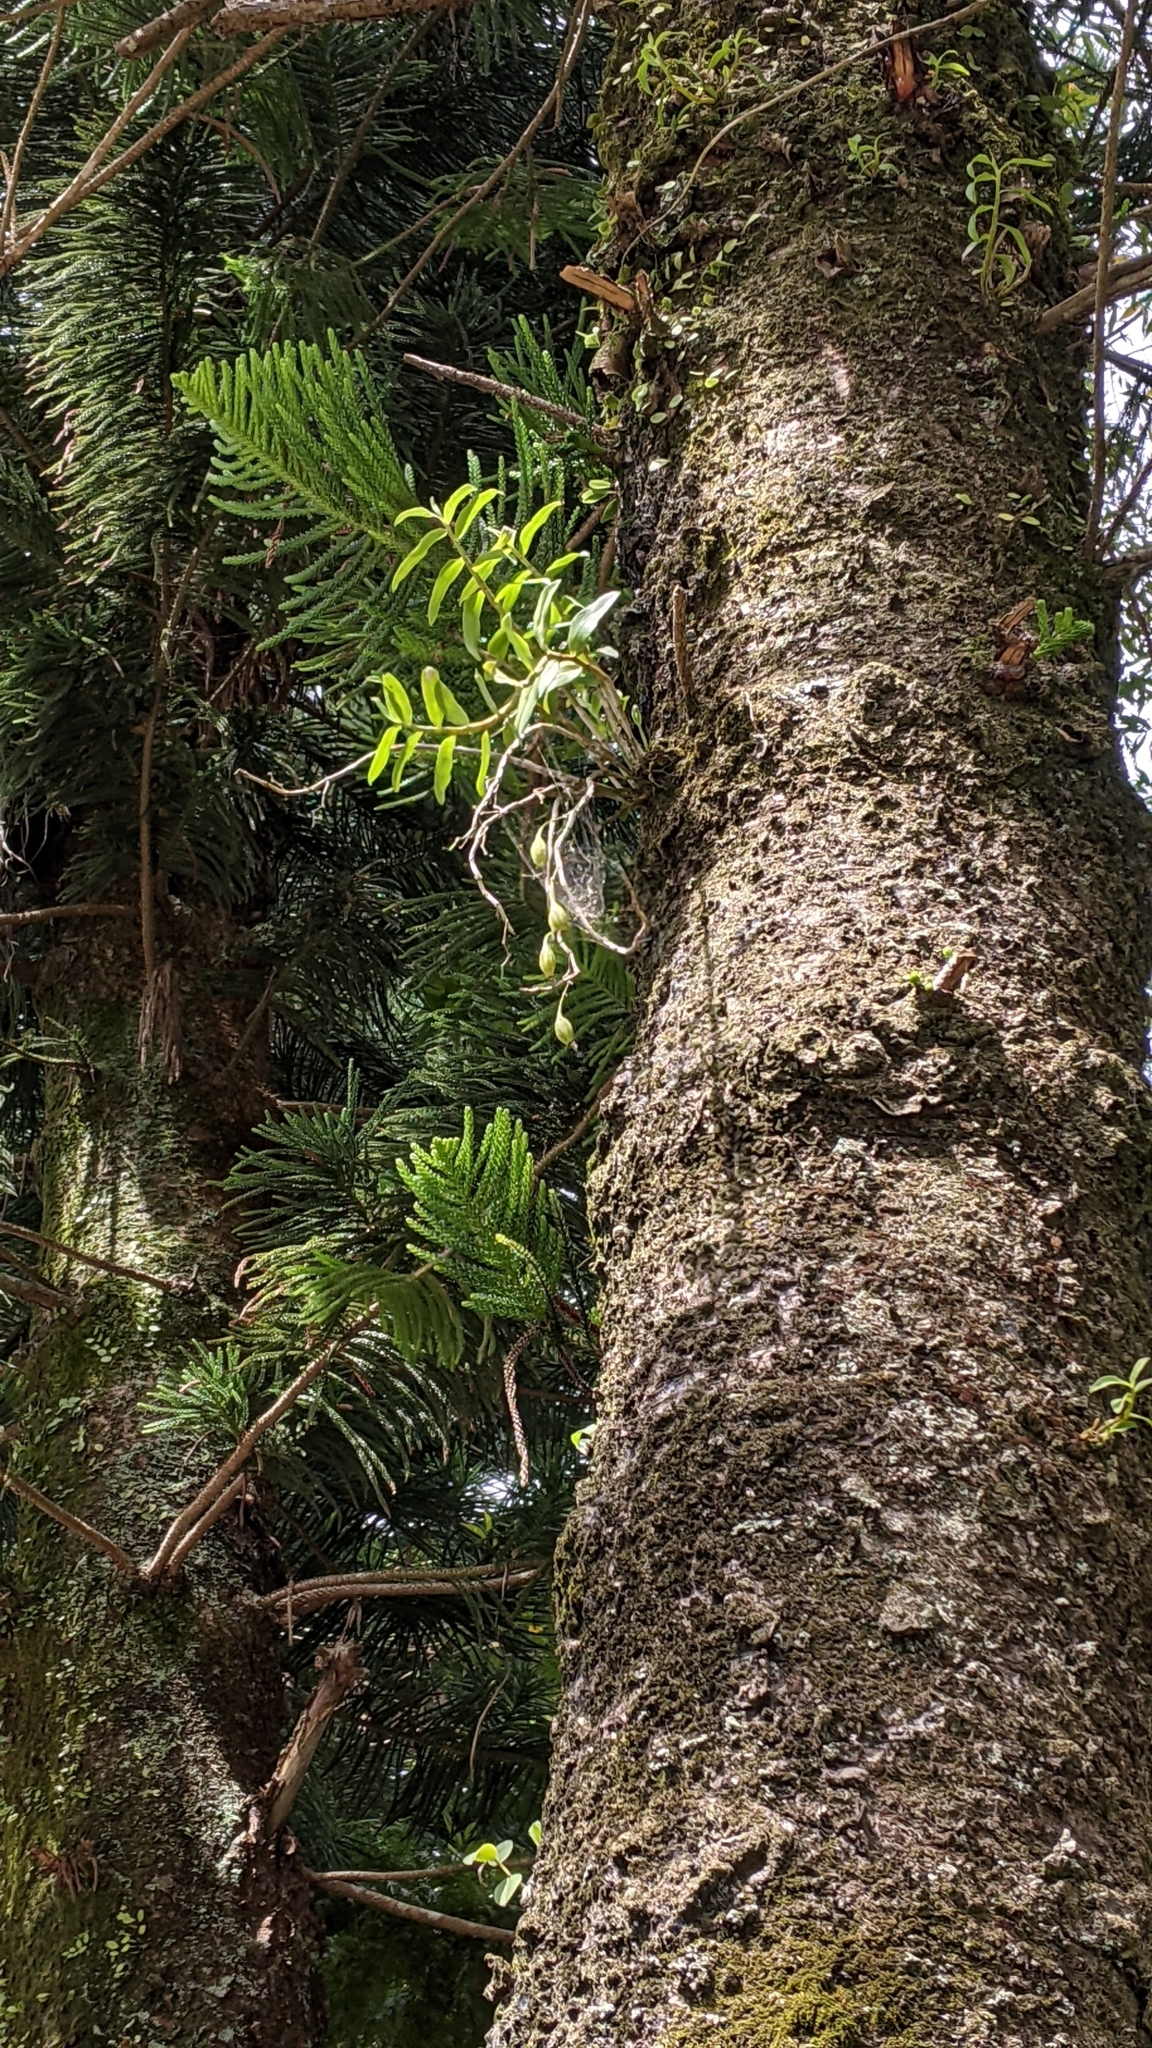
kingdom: Plantae
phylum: Tracheophyta
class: Liliopsida
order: Asparagales
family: Orchidaceae
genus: Dendrobium
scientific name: Dendrobium officinale
